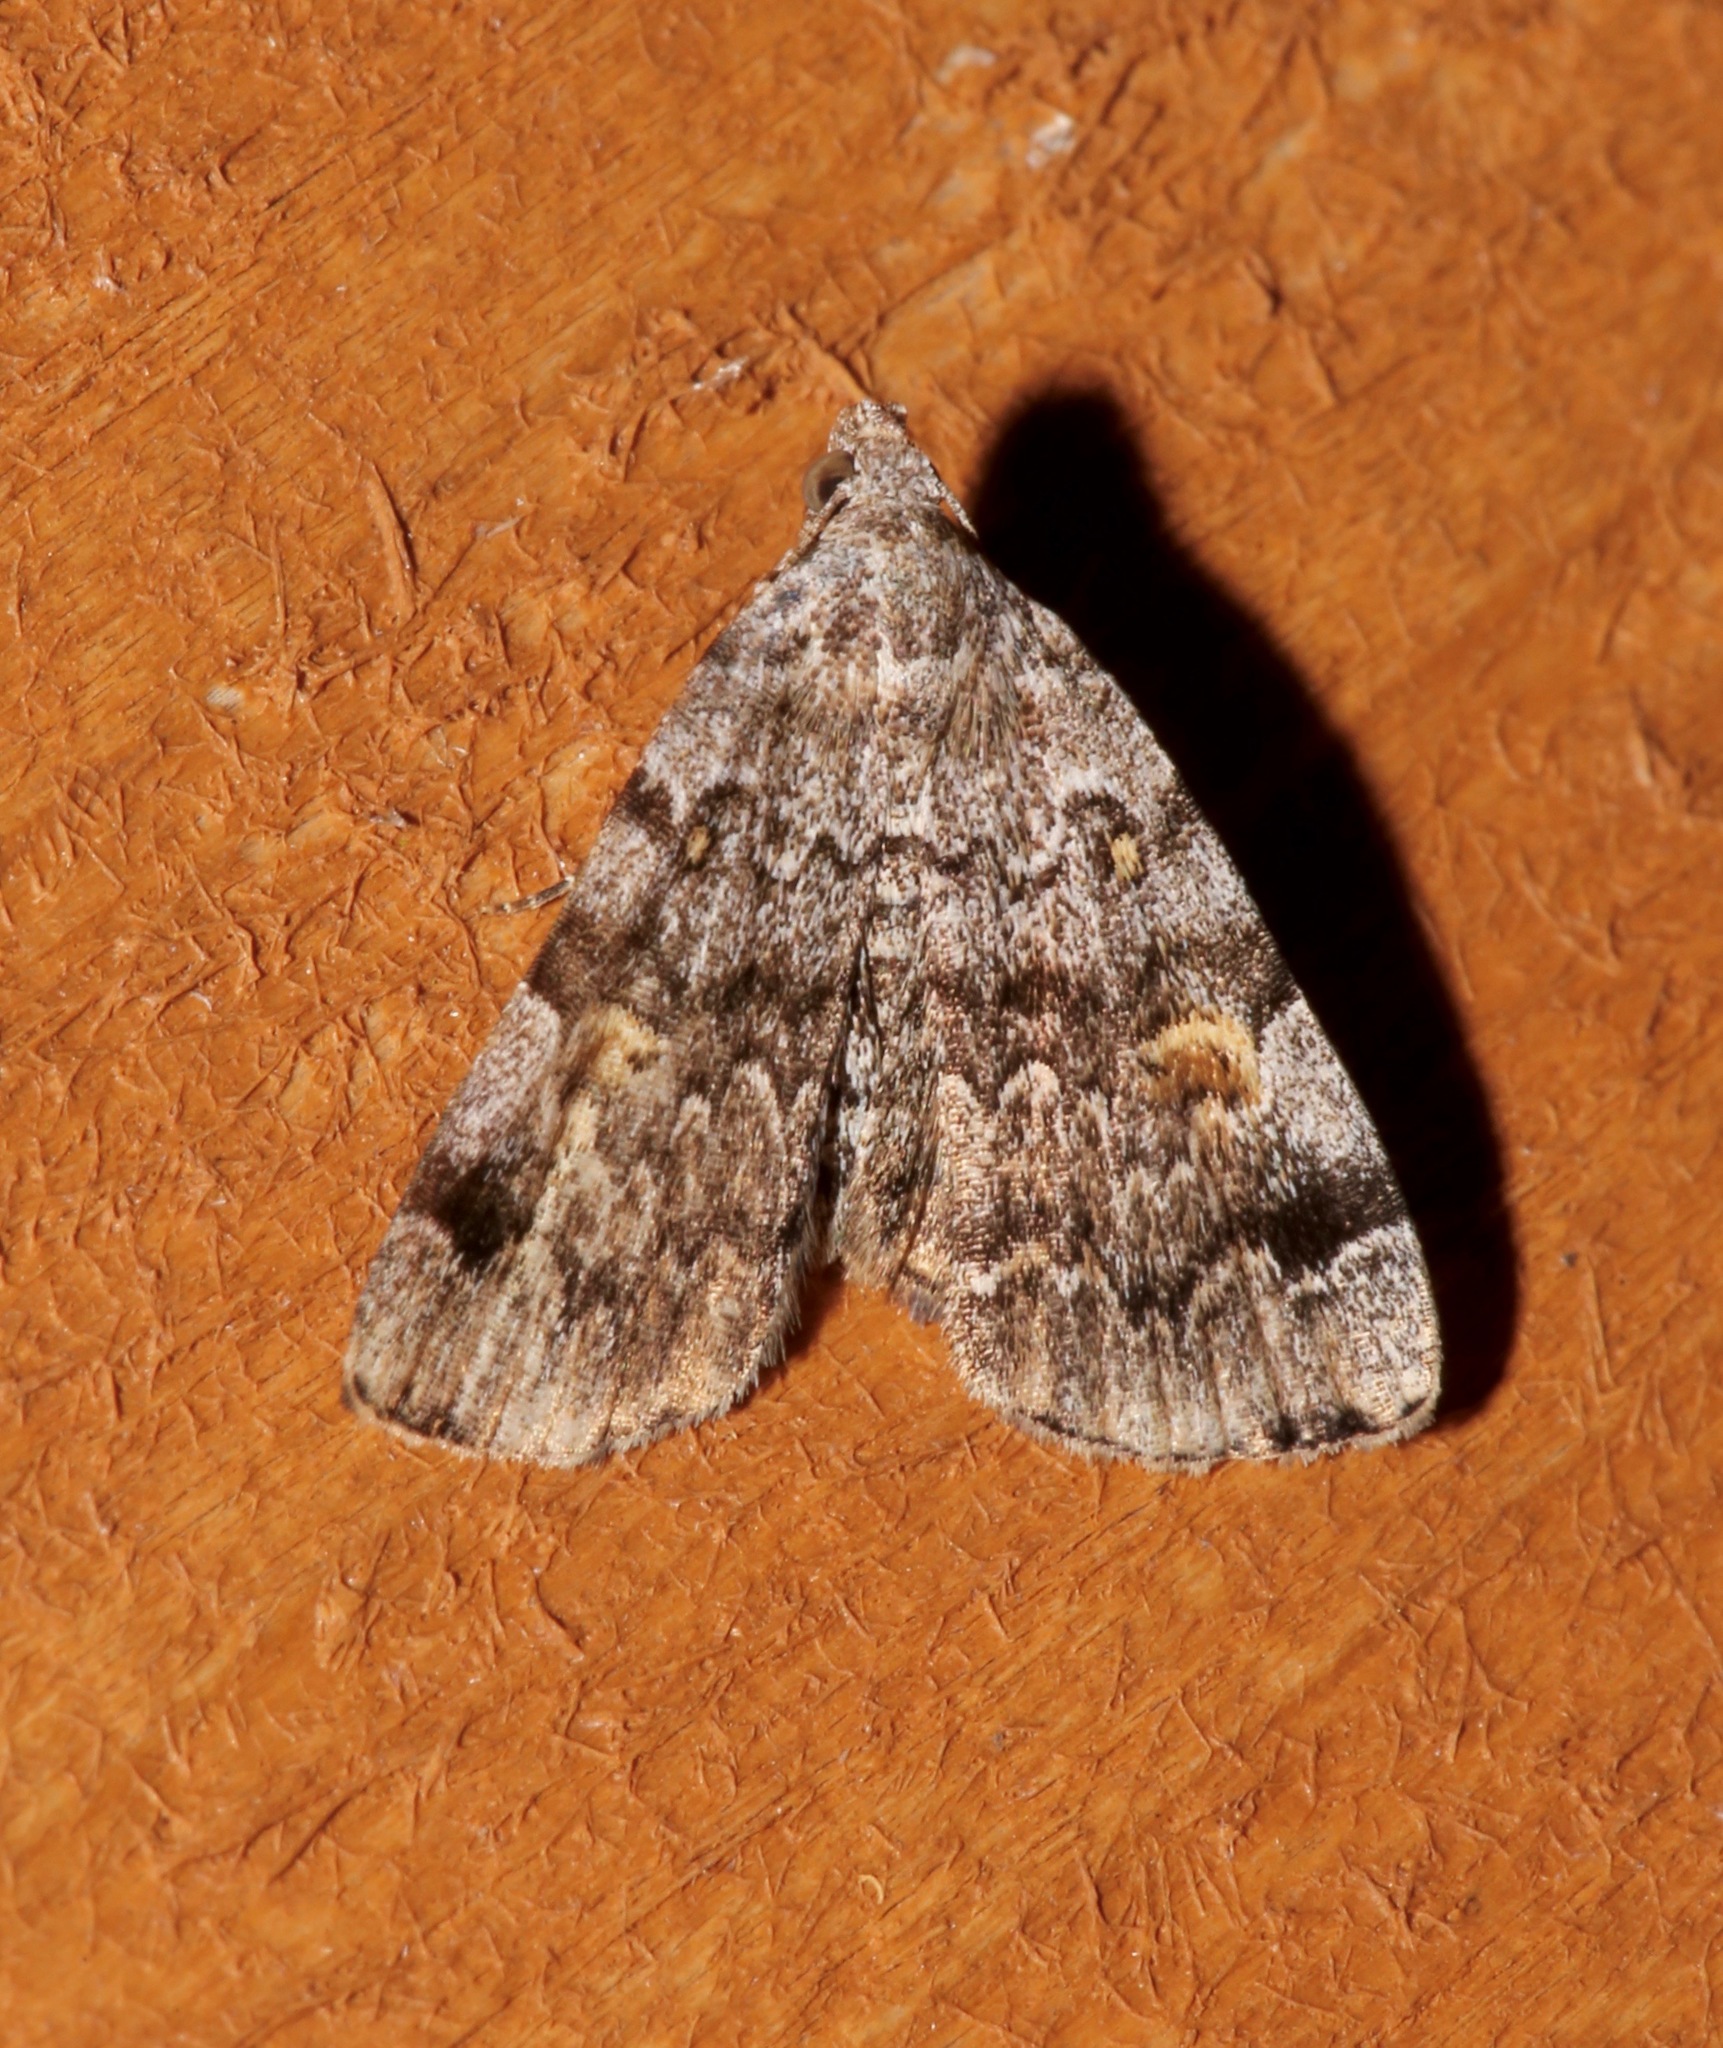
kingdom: Animalia
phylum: Arthropoda
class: Insecta
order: Lepidoptera
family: Erebidae
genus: Idia
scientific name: Idia americalis
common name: American idia moth
